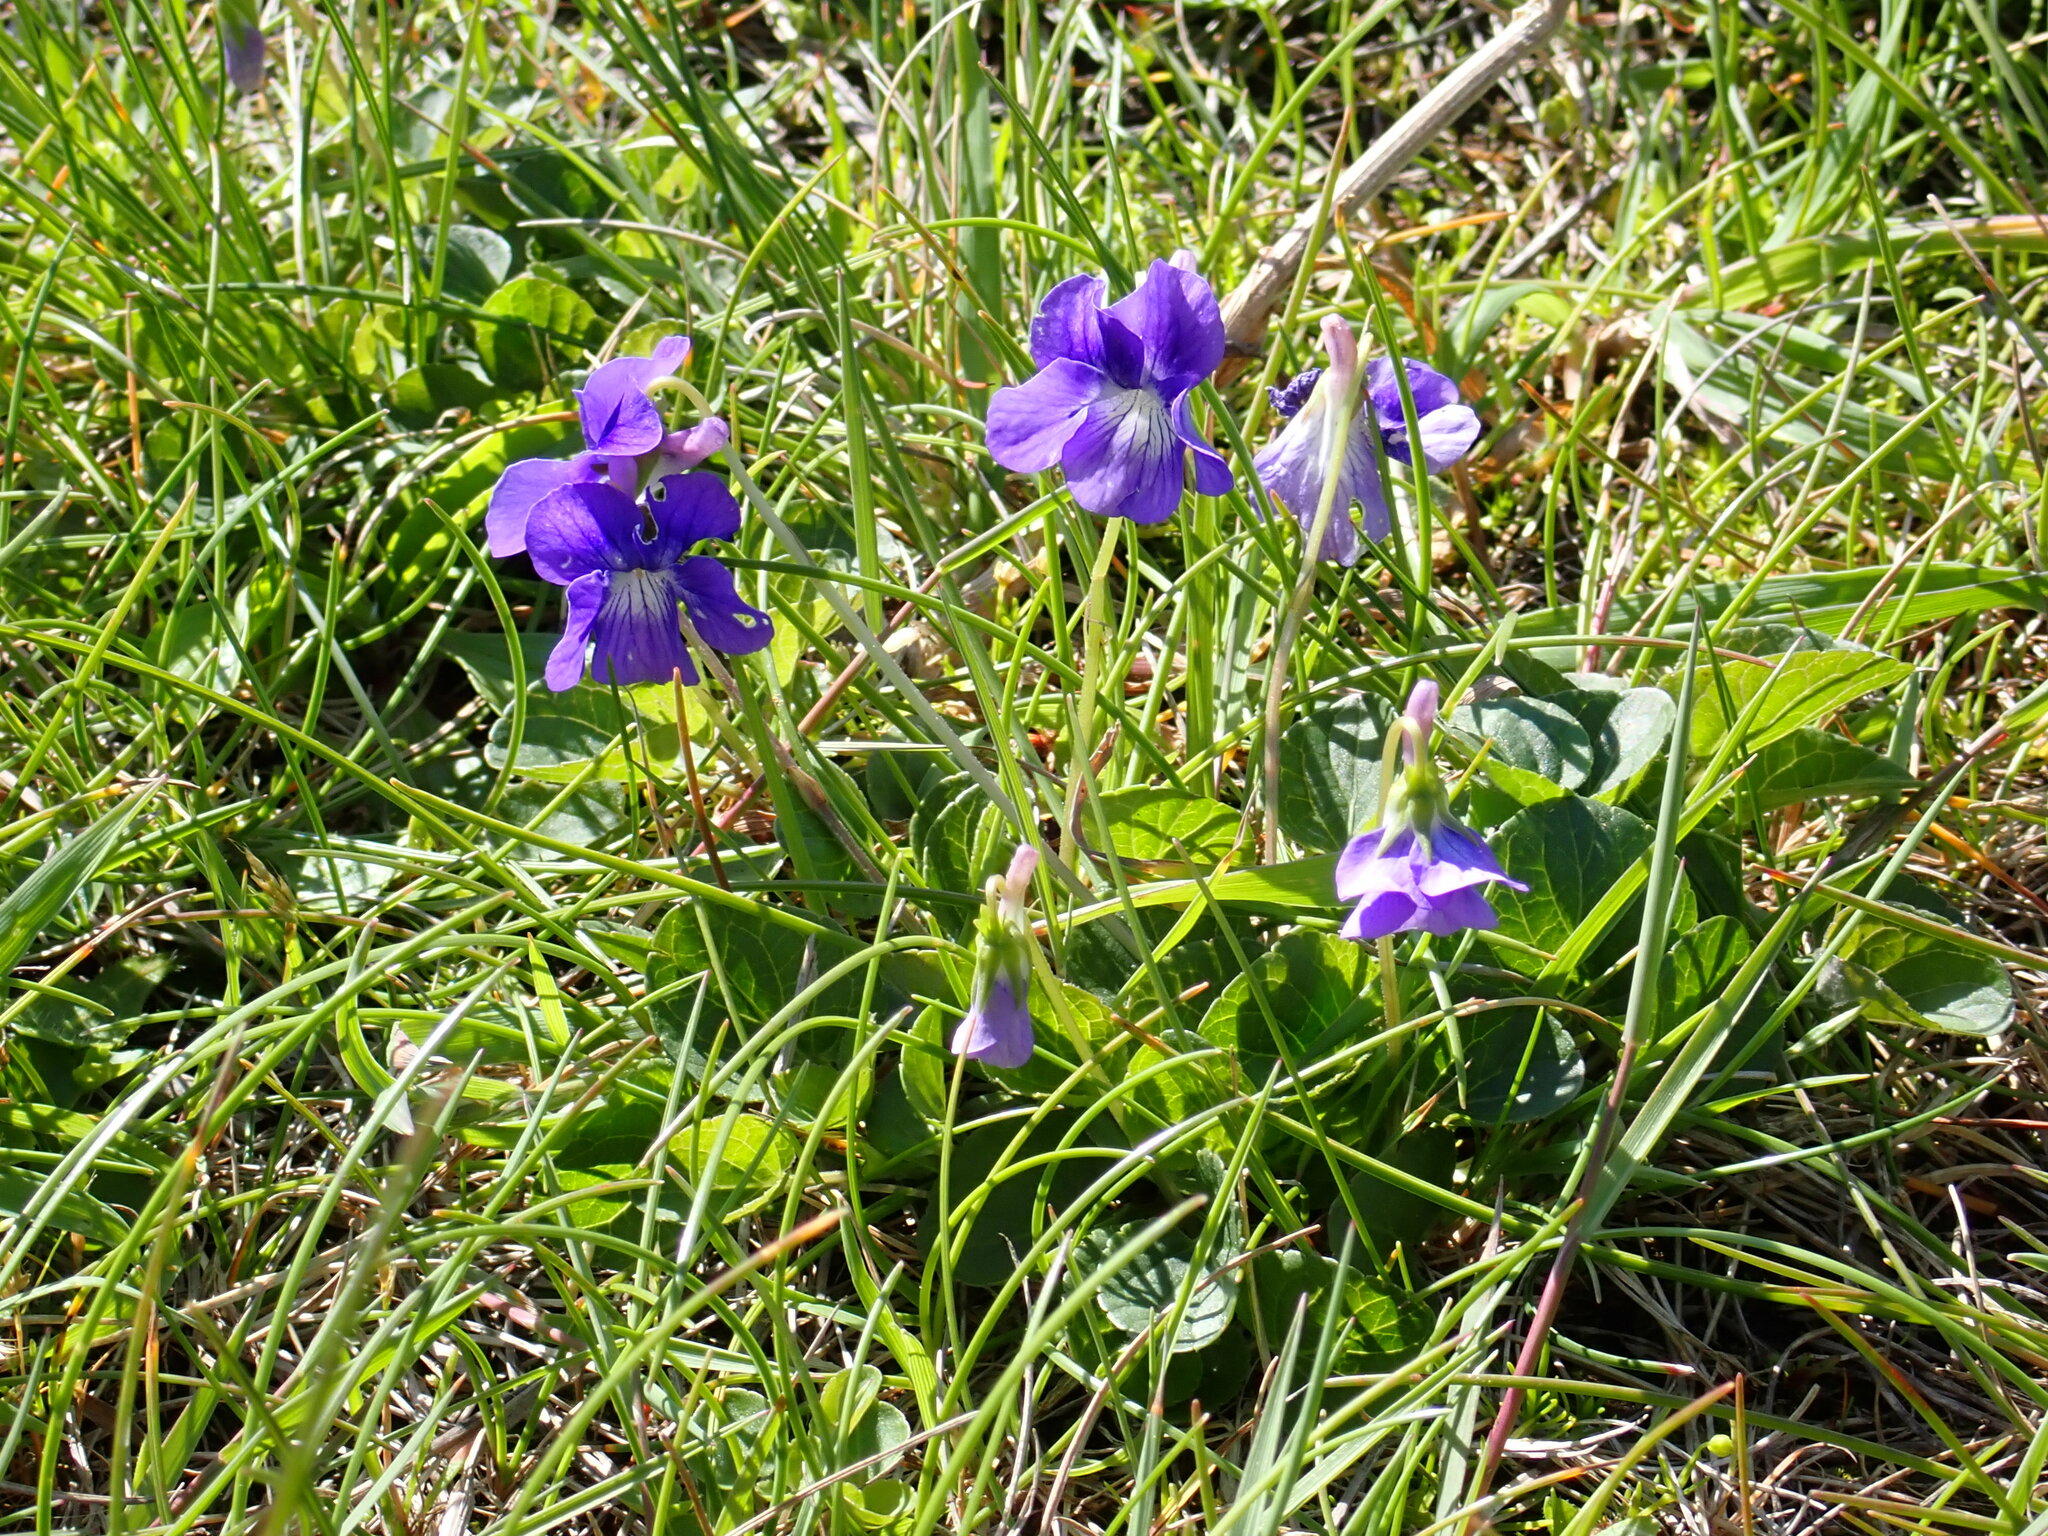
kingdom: Plantae
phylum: Tracheophyta
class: Magnoliopsida
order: Malpighiales
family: Violaceae
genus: Viola
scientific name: Viola adunca
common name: Sand violet
